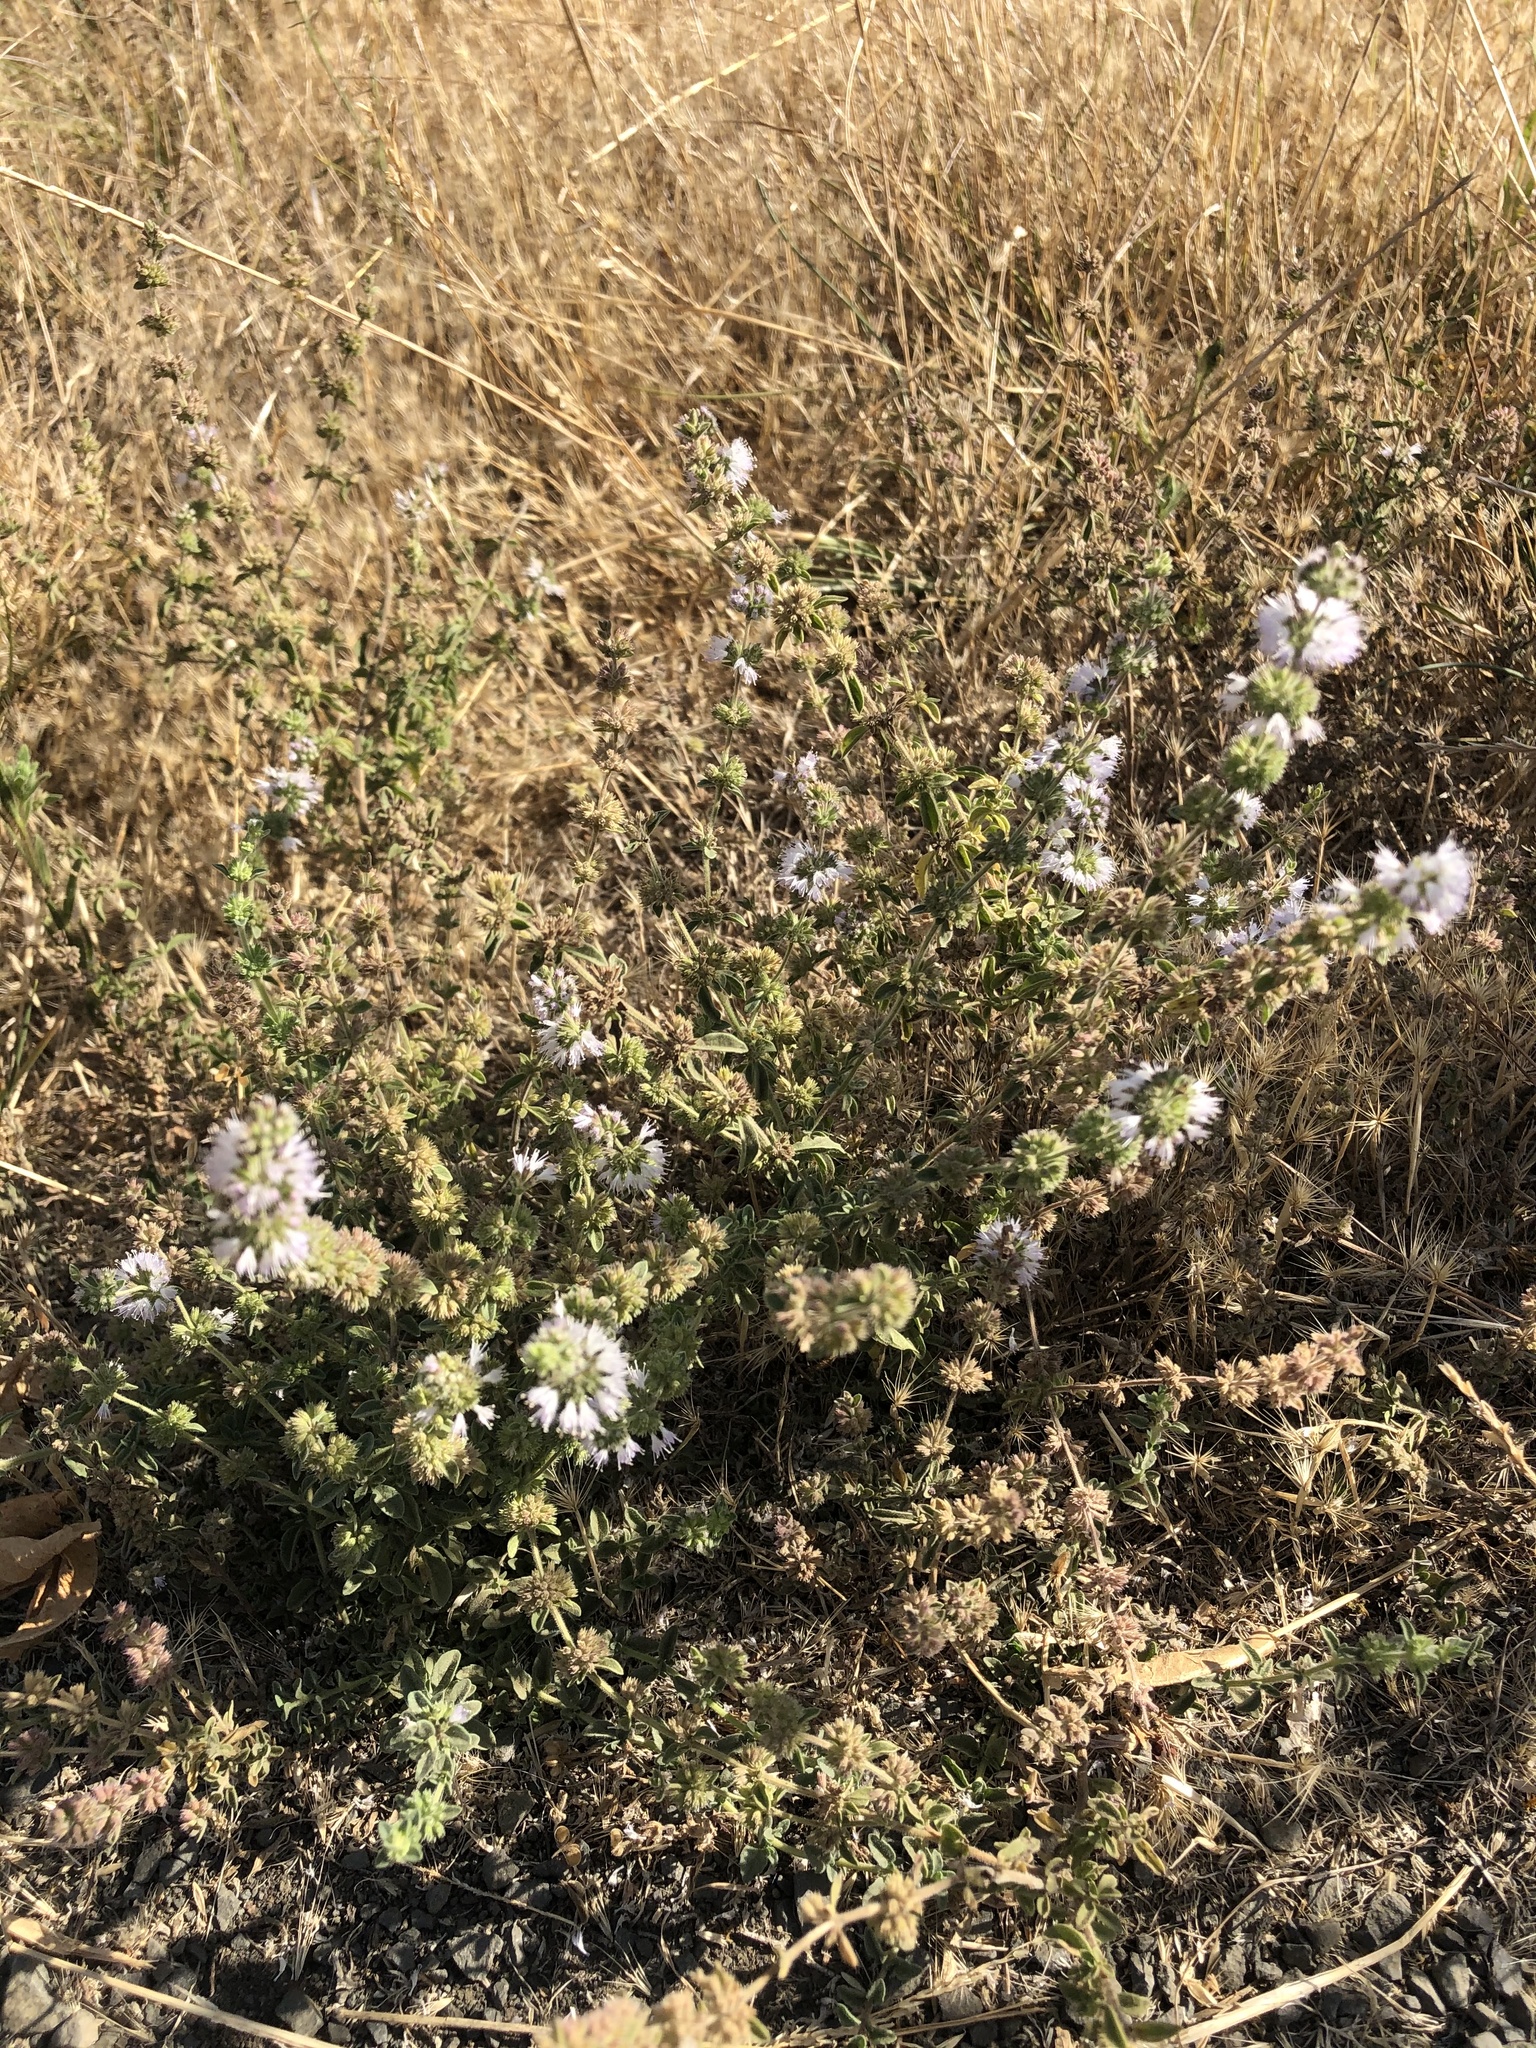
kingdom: Plantae
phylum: Tracheophyta
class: Magnoliopsida
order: Lamiales
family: Lamiaceae
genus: Mentha
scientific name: Mentha pulegium
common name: Pennyroyal
